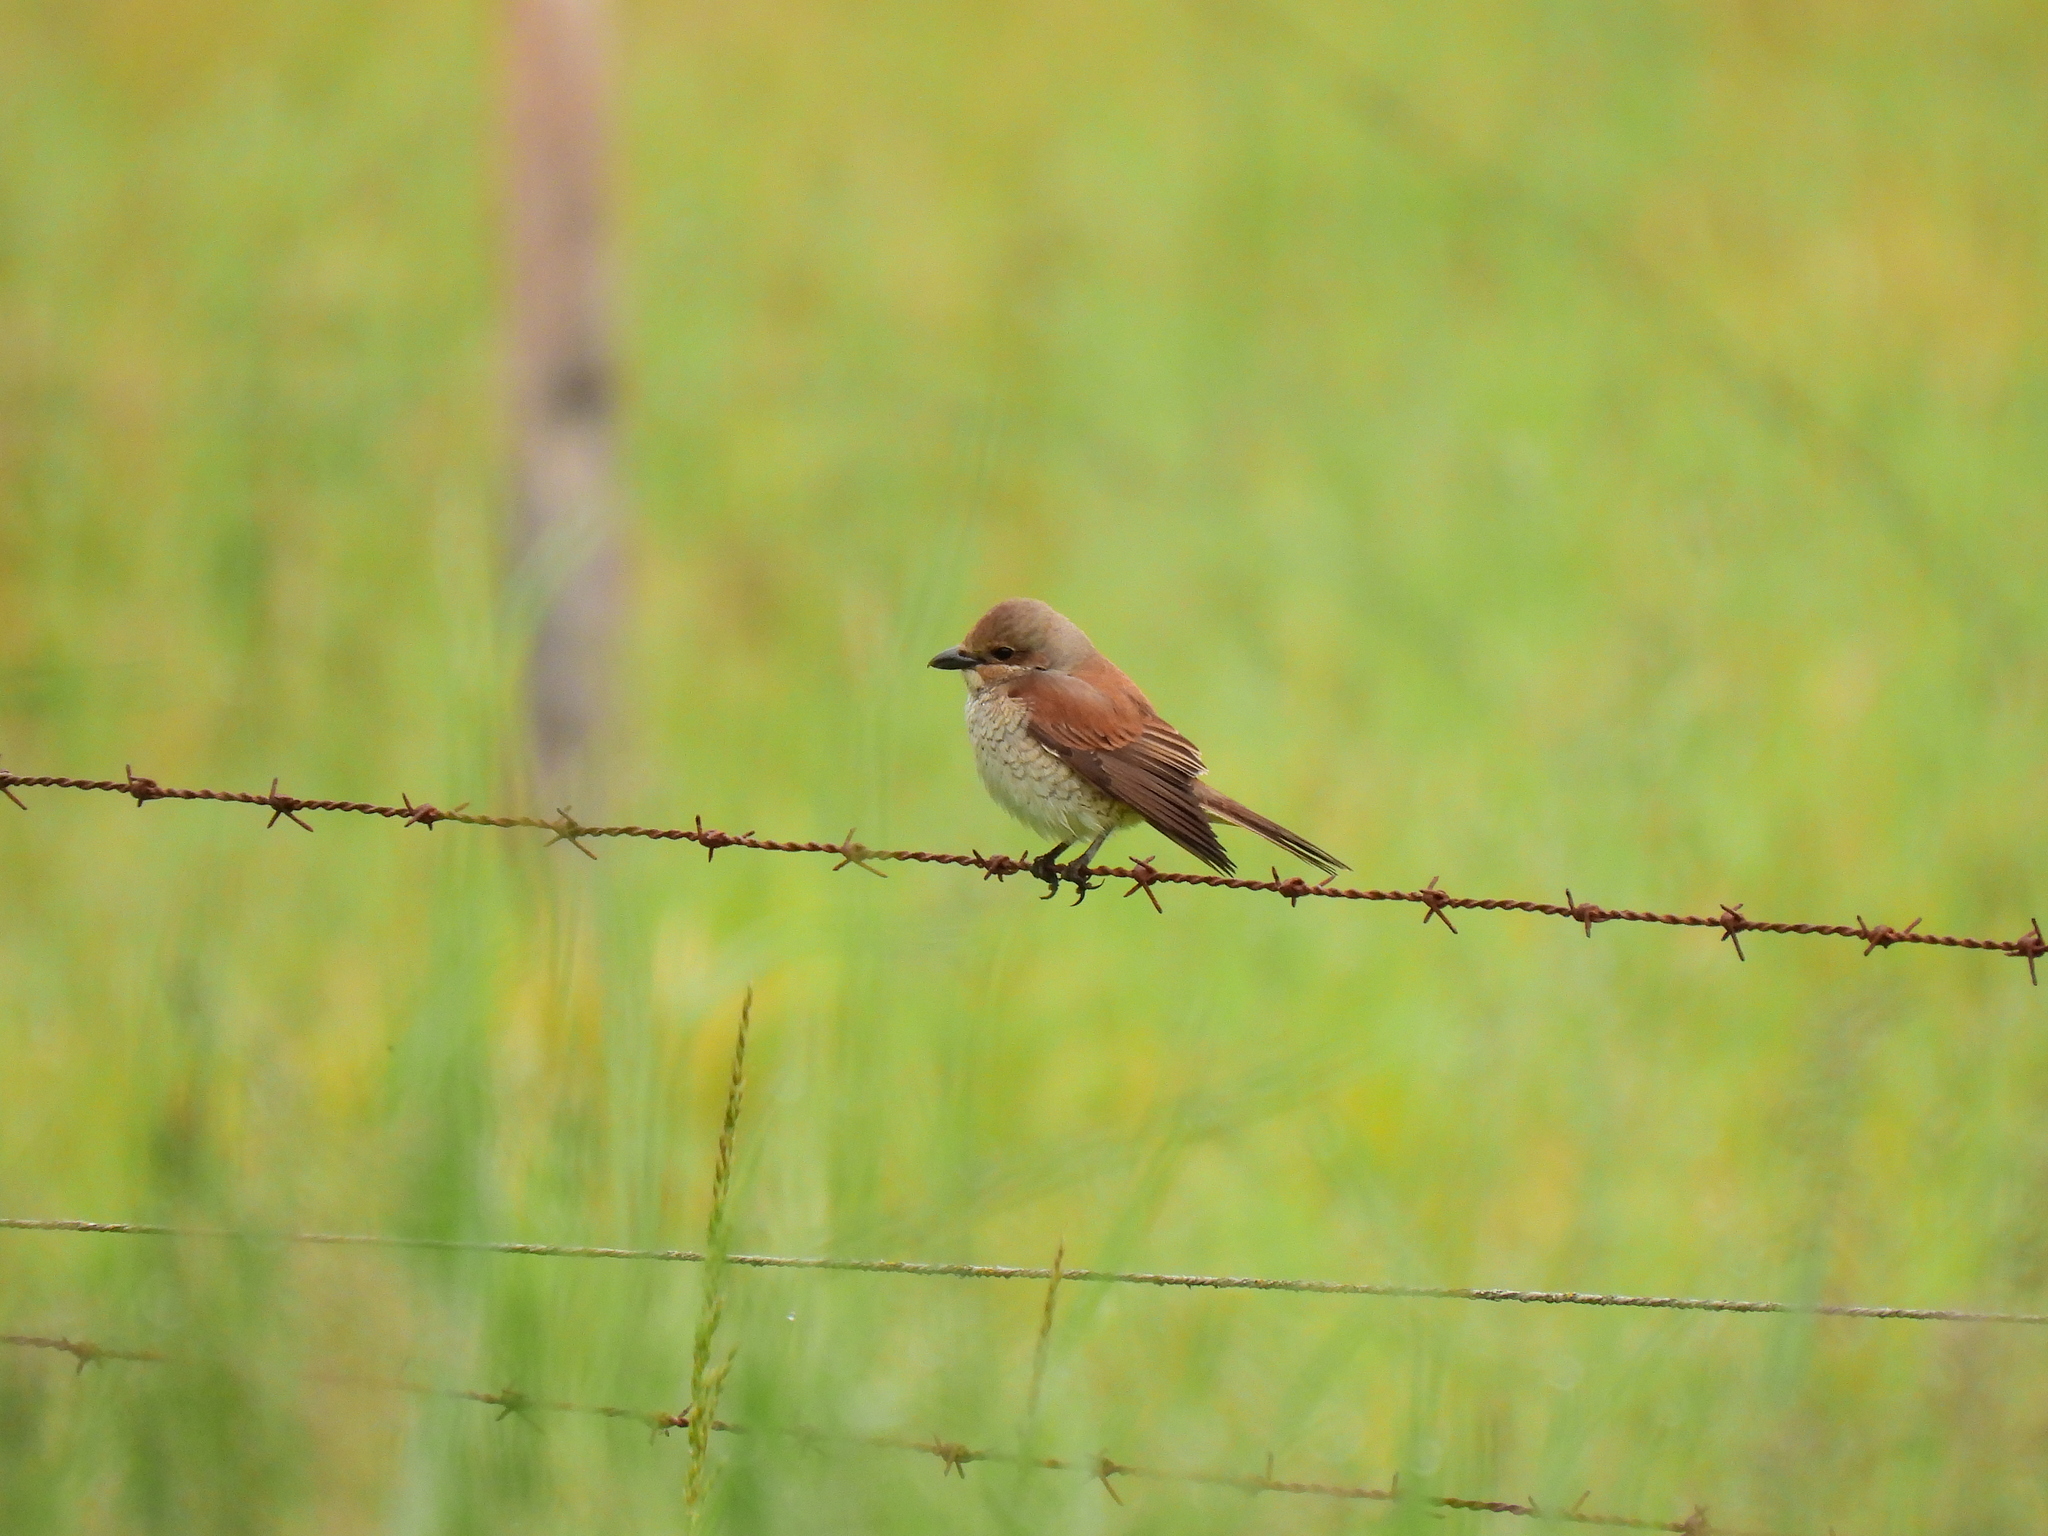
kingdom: Animalia
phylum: Chordata
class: Aves
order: Passeriformes
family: Laniidae
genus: Lanius
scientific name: Lanius collurio
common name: Red-backed shrike
